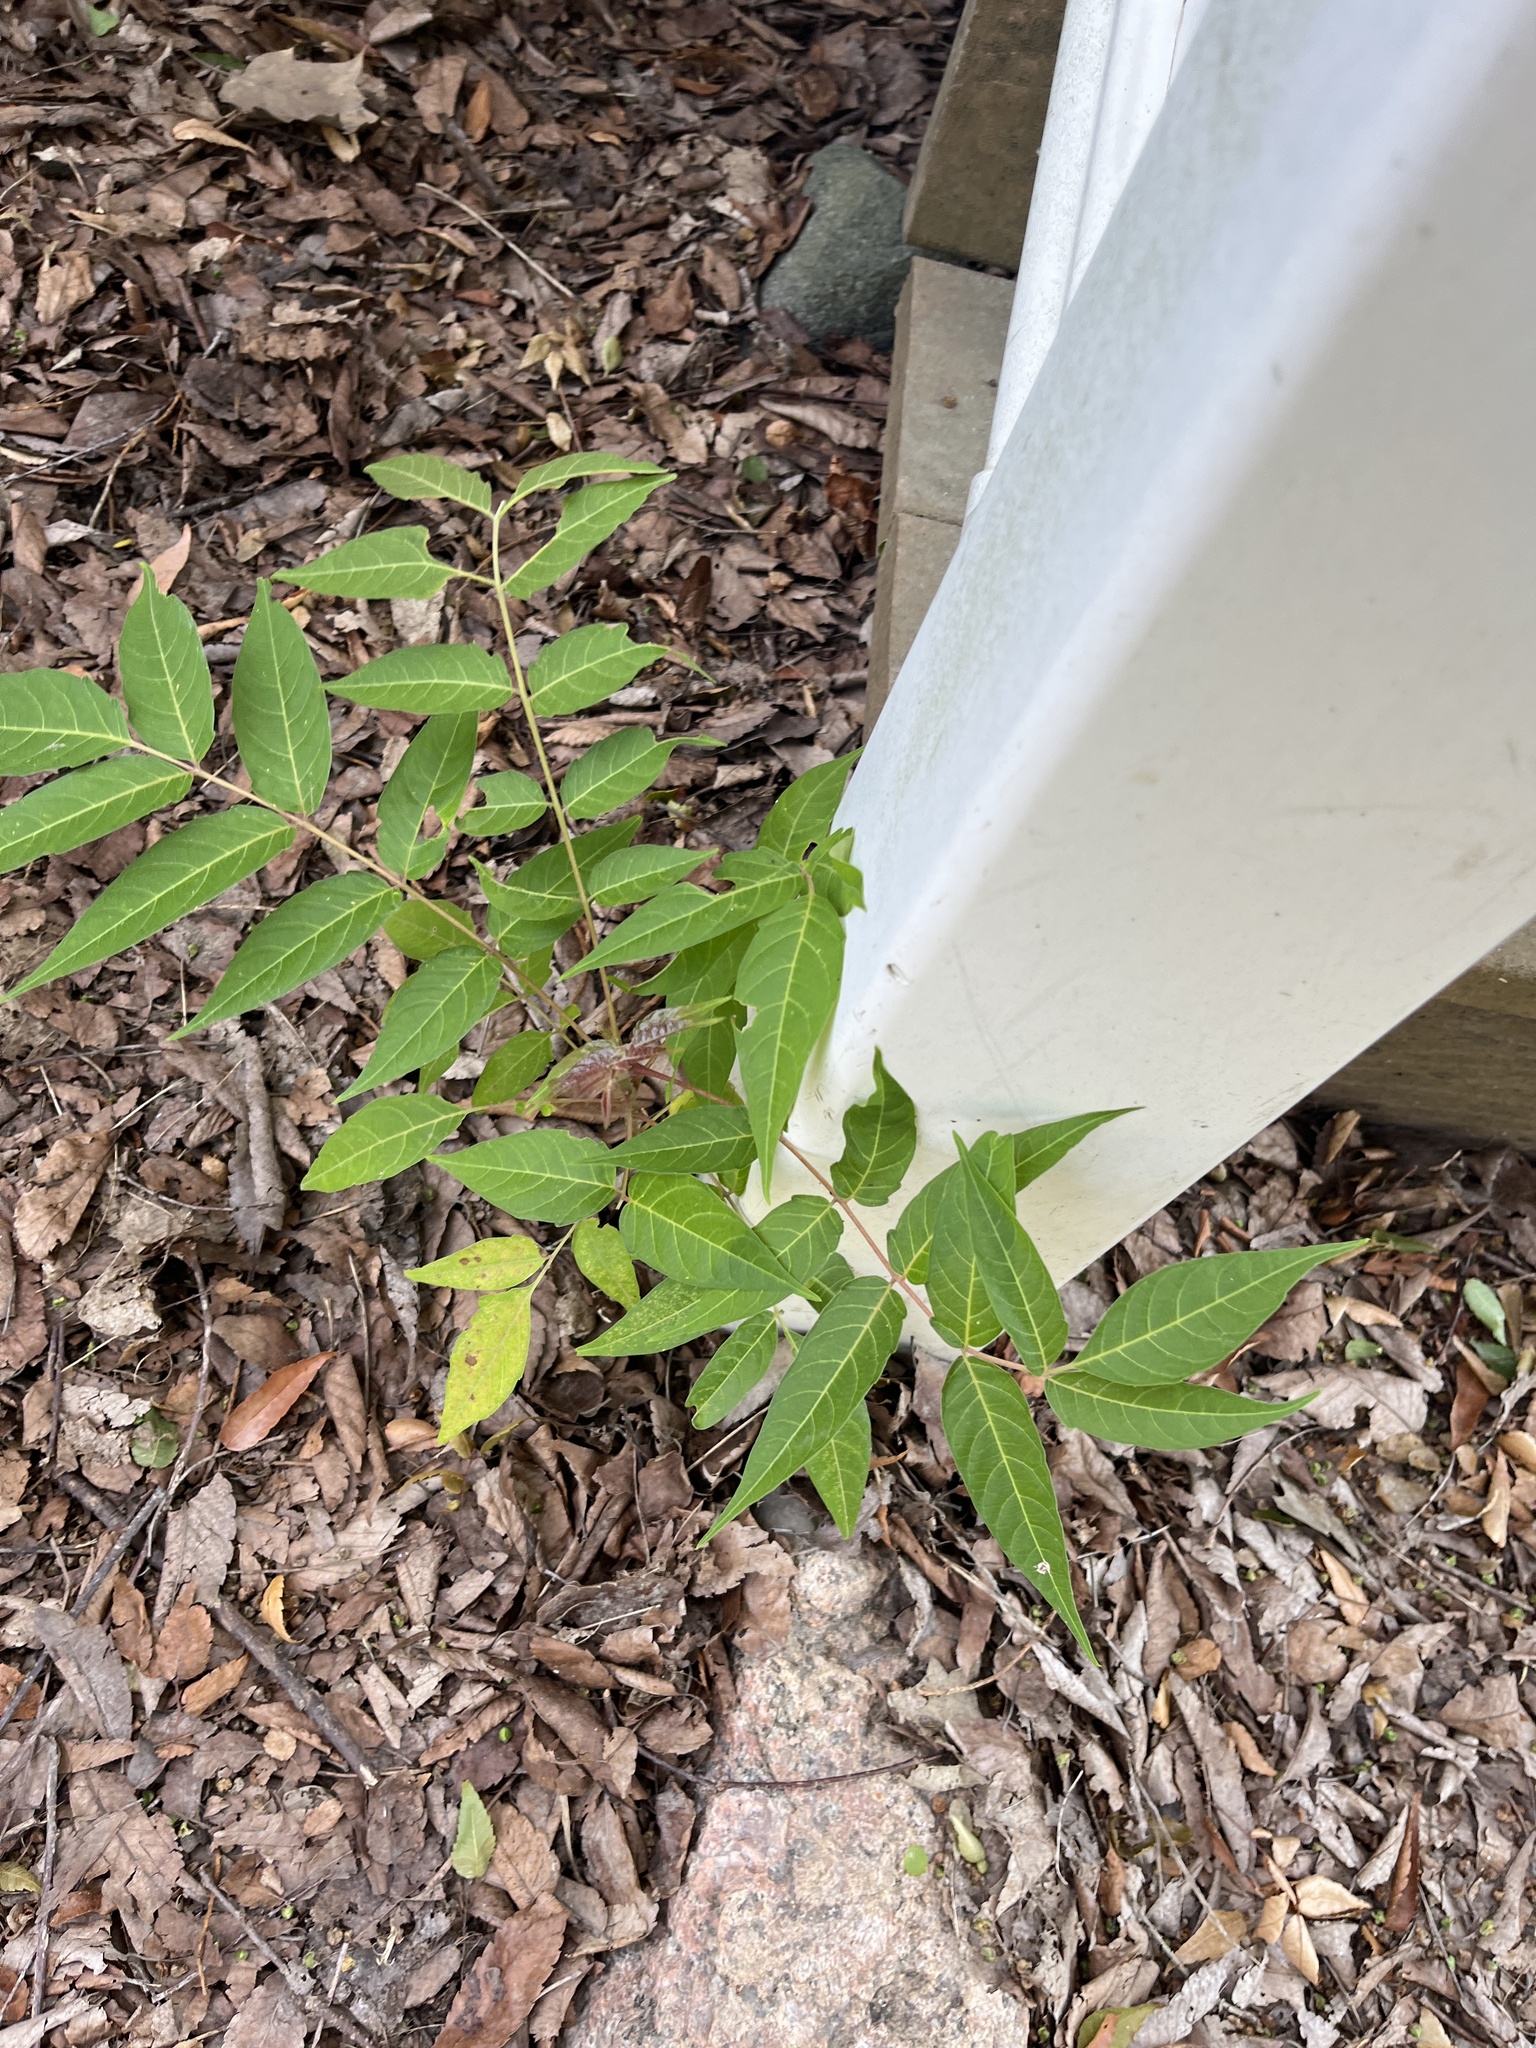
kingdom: Plantae
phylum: Tracheophyta
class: Magnoliopsida
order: Sapindales
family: Simaroubaceae
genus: Ailanthus
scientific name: Ailanthus altissima
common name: Tree-of-heaven
